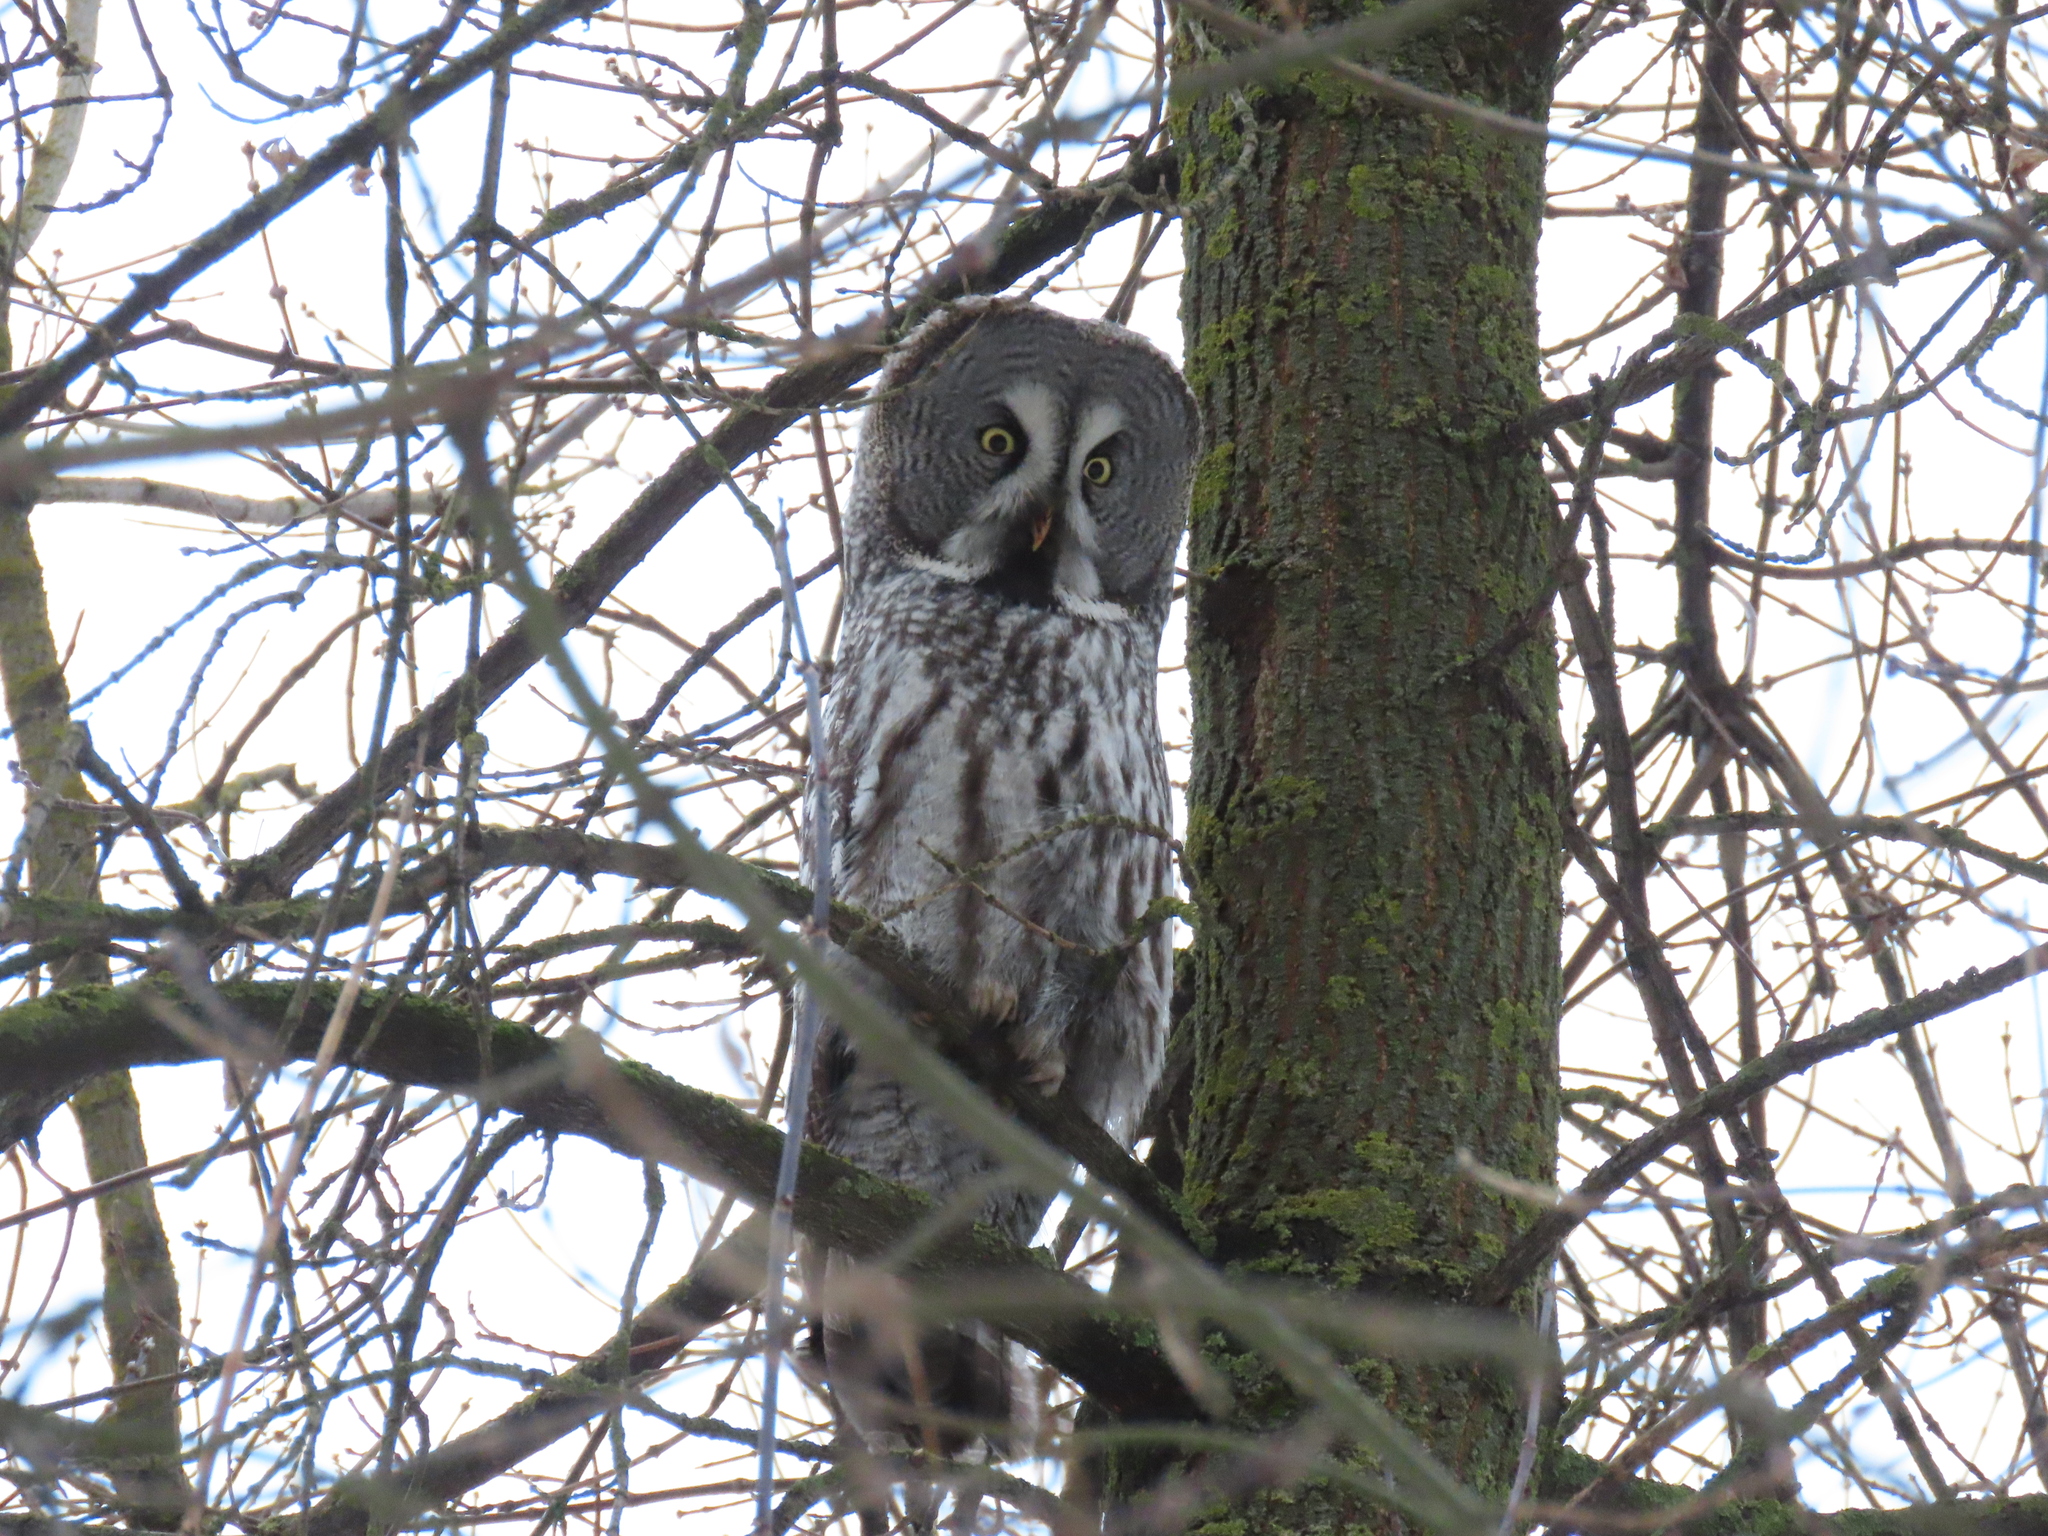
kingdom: Animalia
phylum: Chordata
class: Aves
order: Strigiformes
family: Strigidae
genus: Strix
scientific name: Strix nebulosa
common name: Great grey owl
